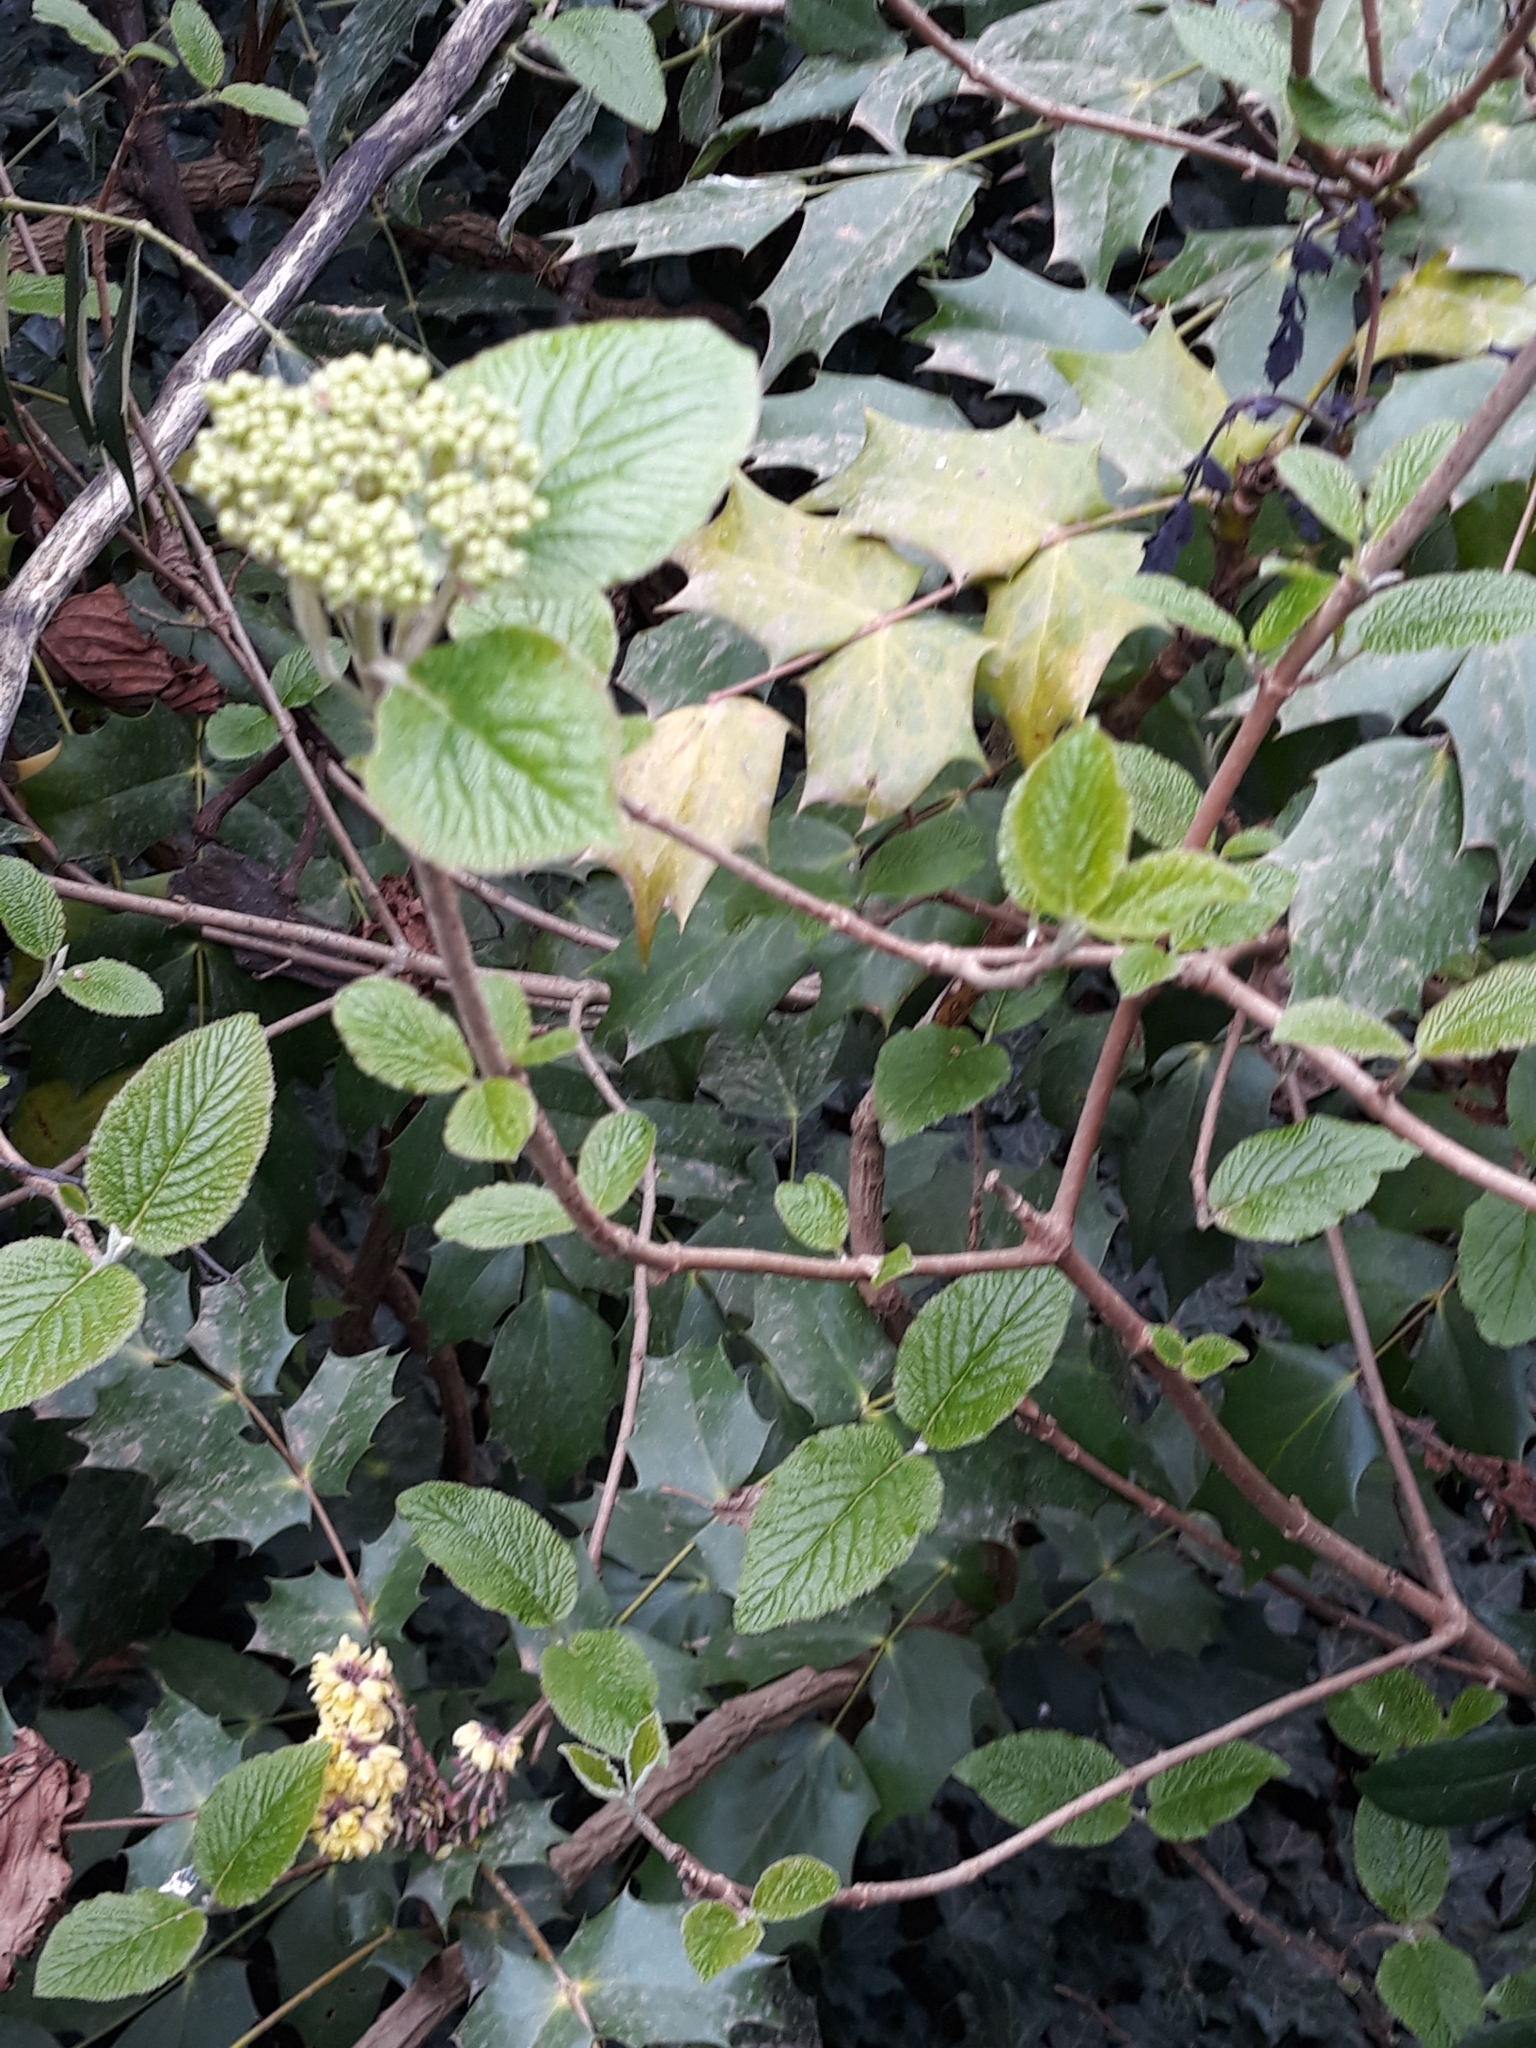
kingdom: Plantae
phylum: Tracheophyta
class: Magnoliopsida
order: Dipsacales
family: Viburnaceae
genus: Viburnum
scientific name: Viburnum lantana
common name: Wayfaring tree
